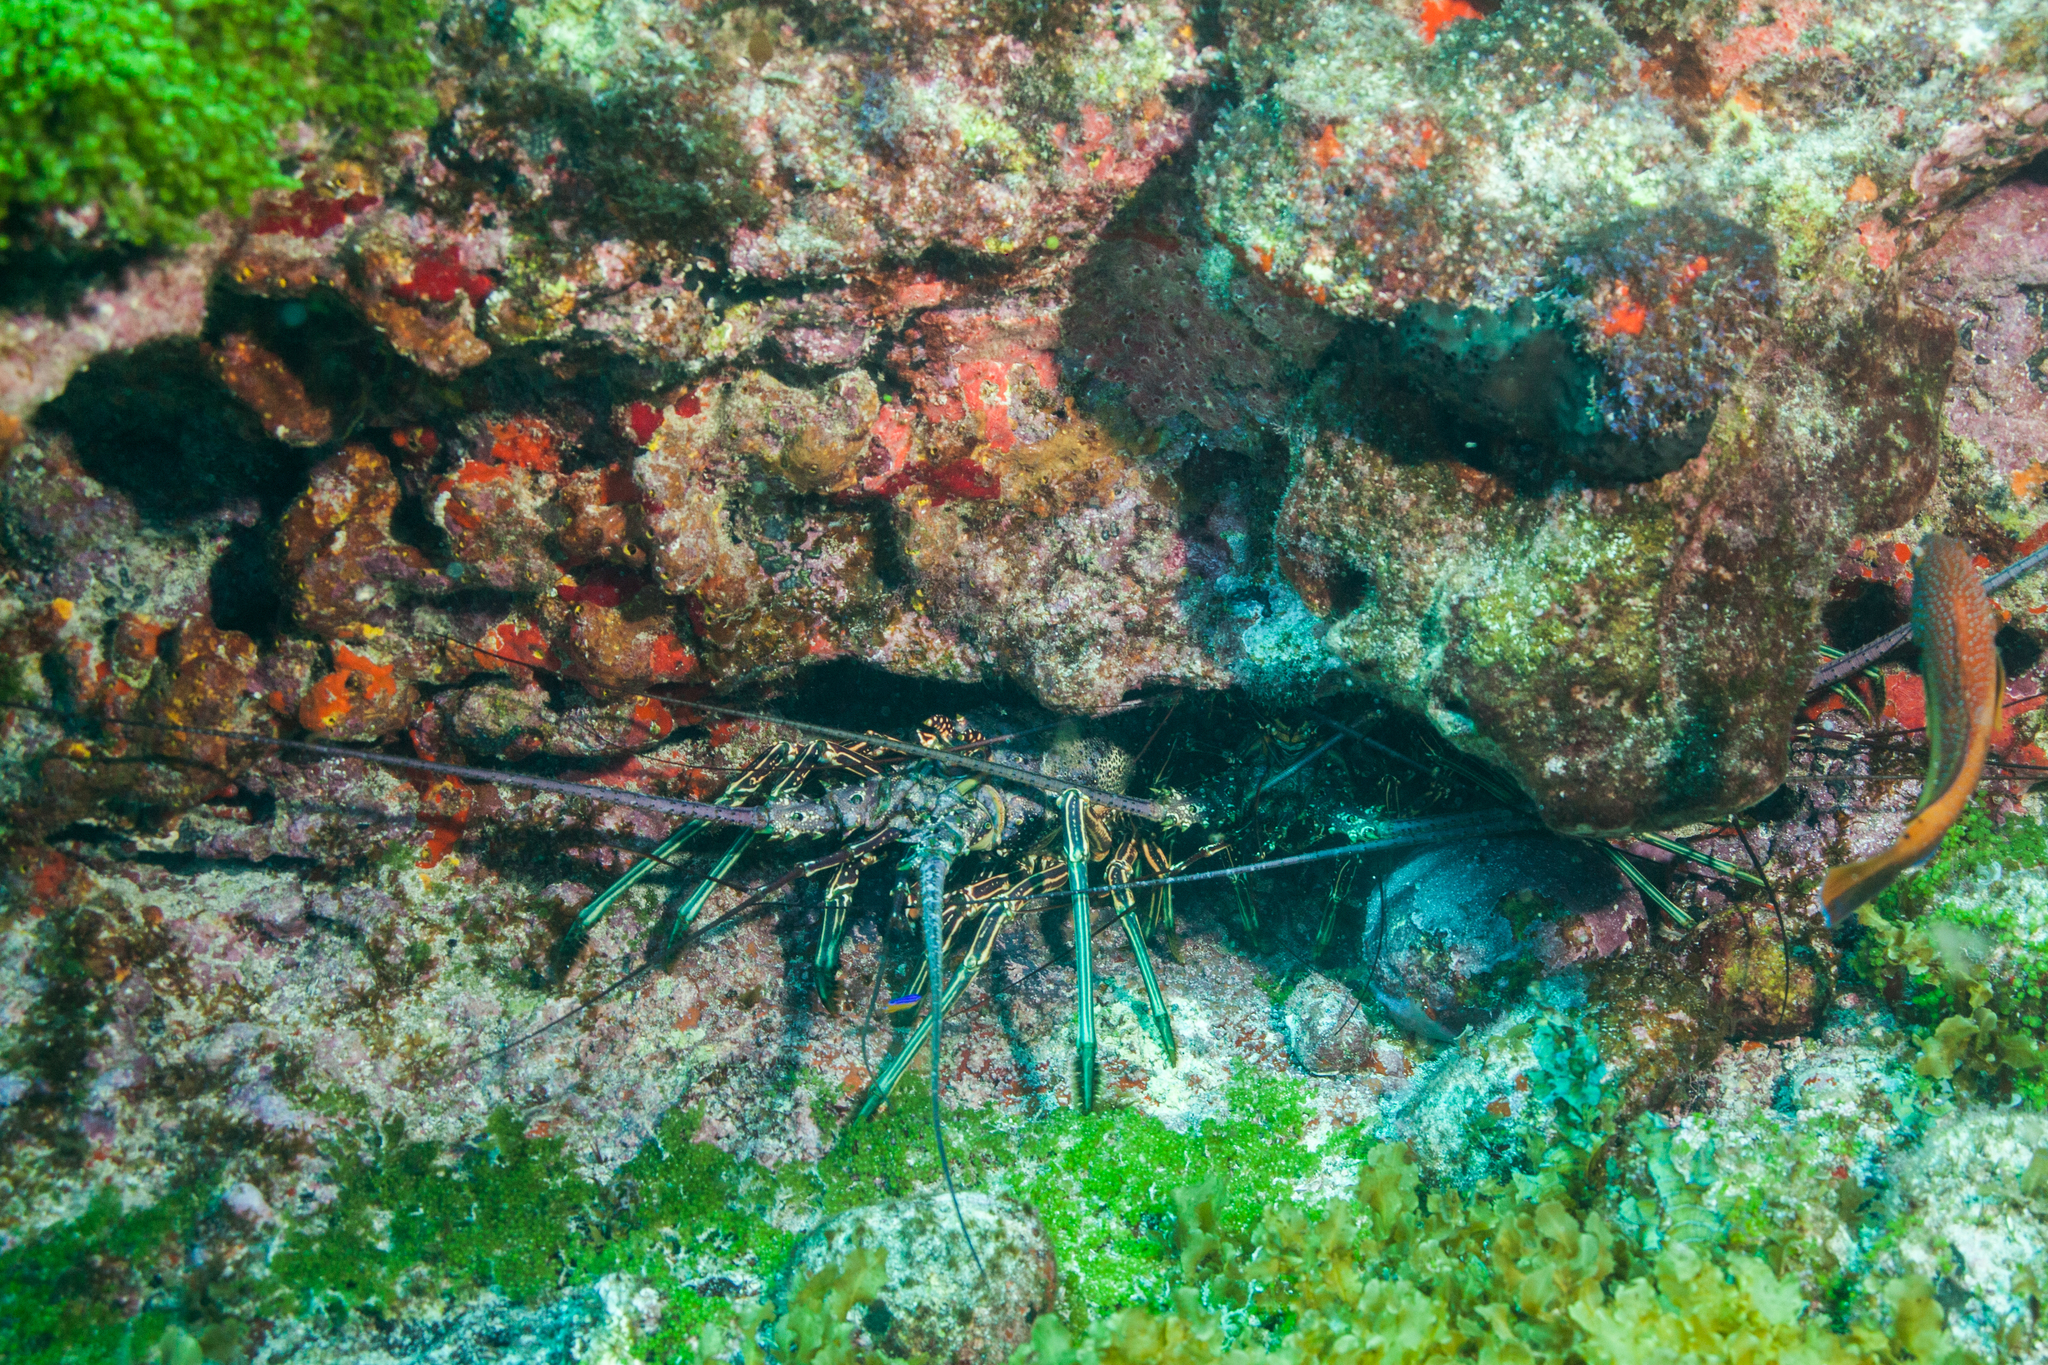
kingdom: Animalia
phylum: Arthropoda
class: Malacostraca
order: Decapoda
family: Palinuridae
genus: Panulirus
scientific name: Panulirus laevicauda
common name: Smoothtail spiny lobster
